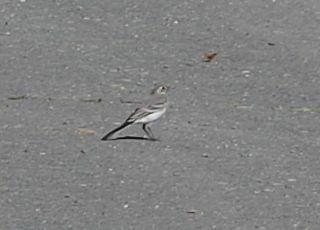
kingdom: Animalia
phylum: Chordata
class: Aves
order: Passeriformes
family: Motacillidae
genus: Motacilla
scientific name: Motacilla alba
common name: White wagtail
